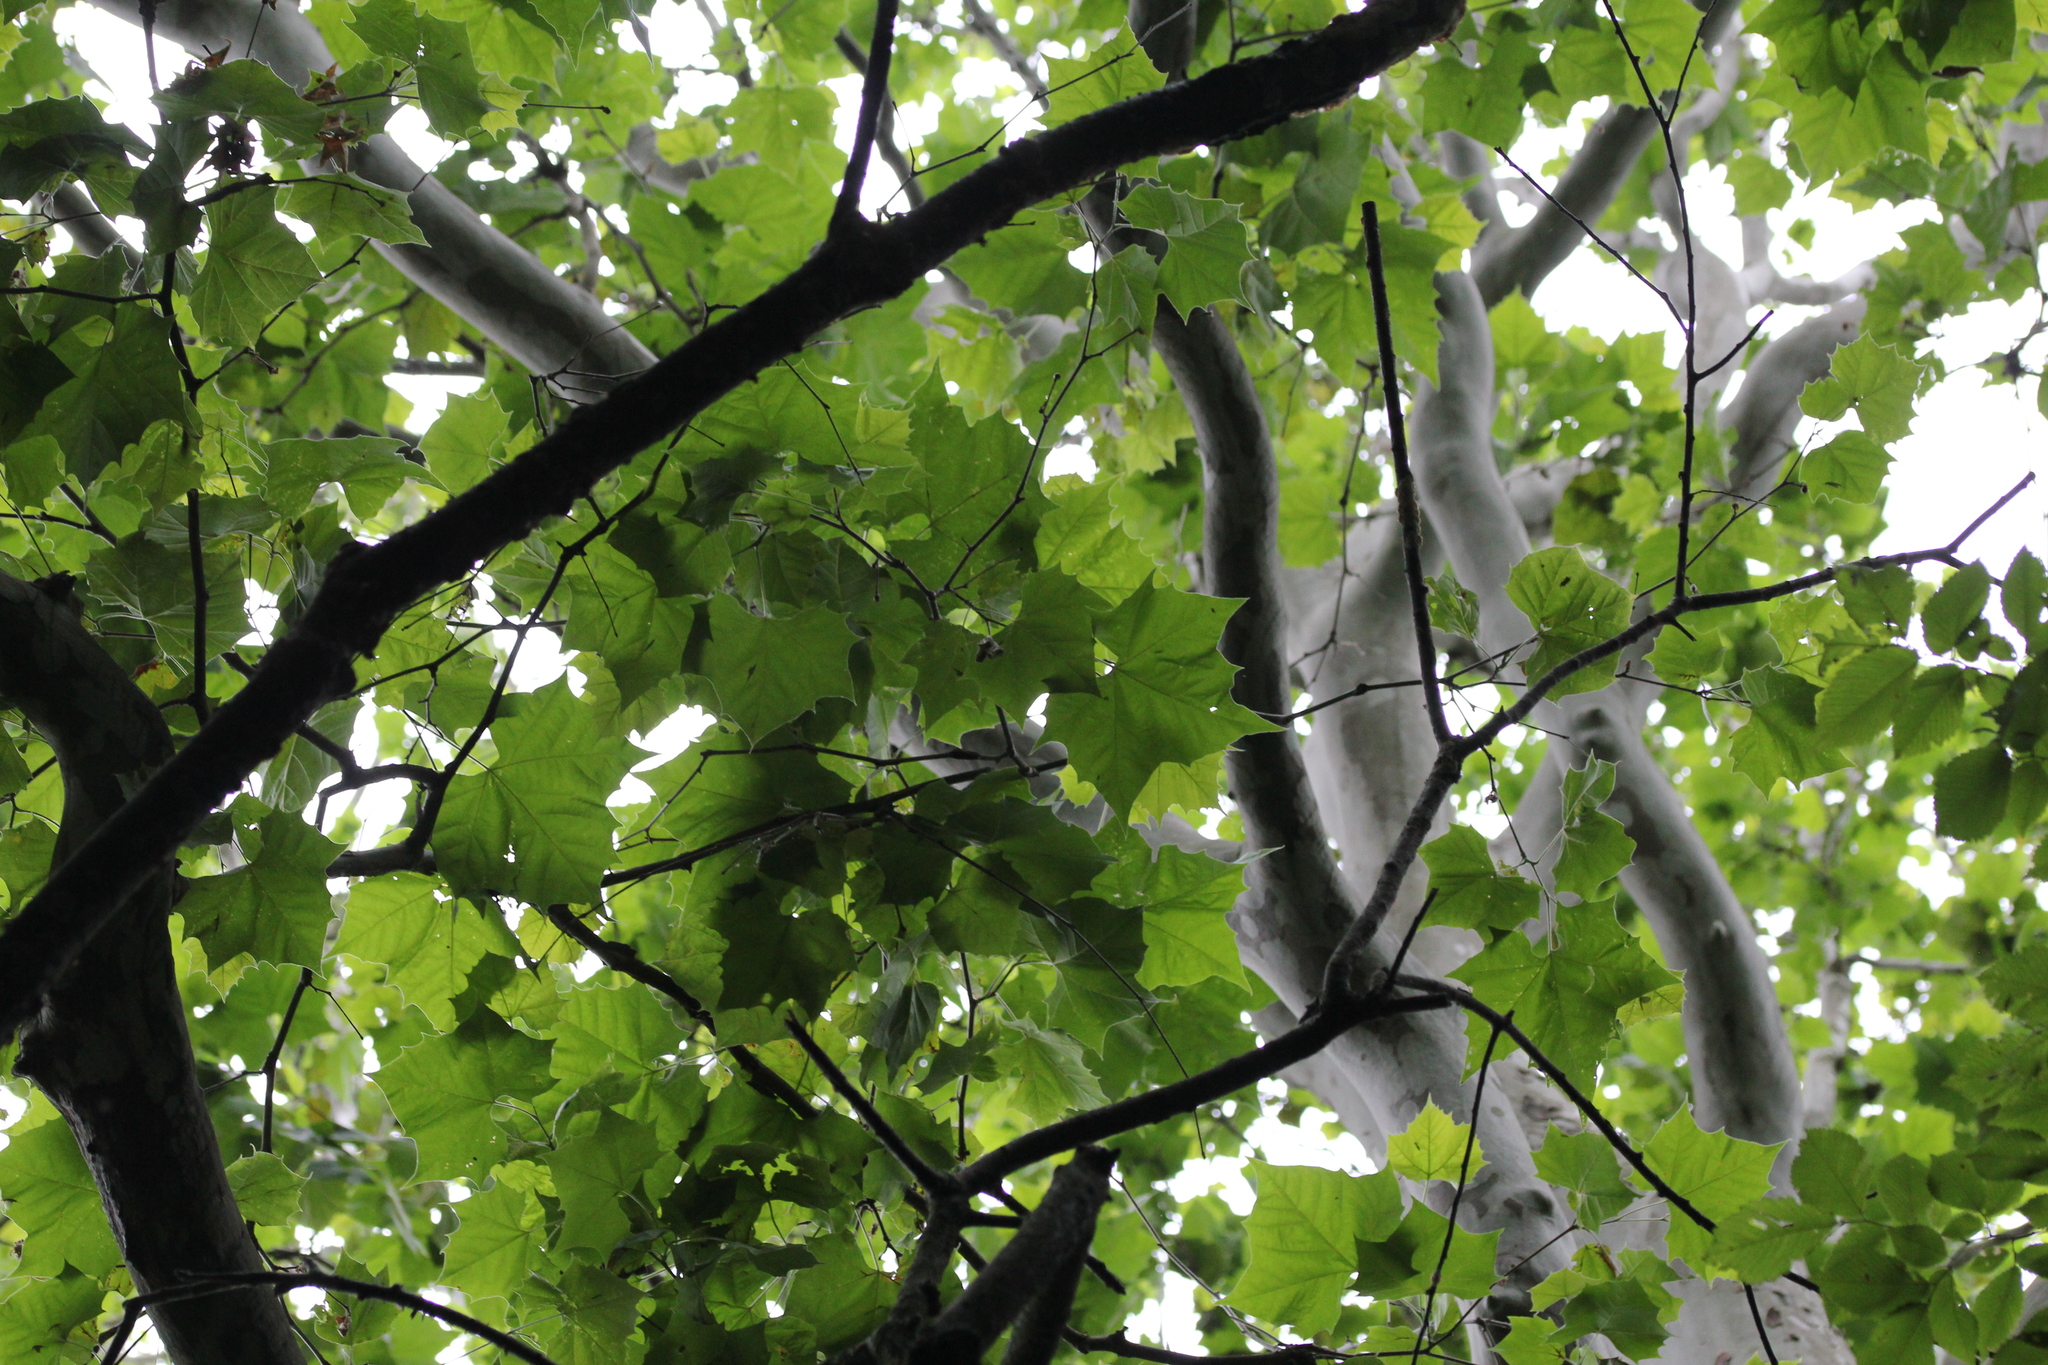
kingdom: Plantae
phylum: Tracheophyta
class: Magnoliopsida
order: Proteales
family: Platanaceae
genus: Platanus
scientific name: Platanus occidentalis
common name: American sycamore
